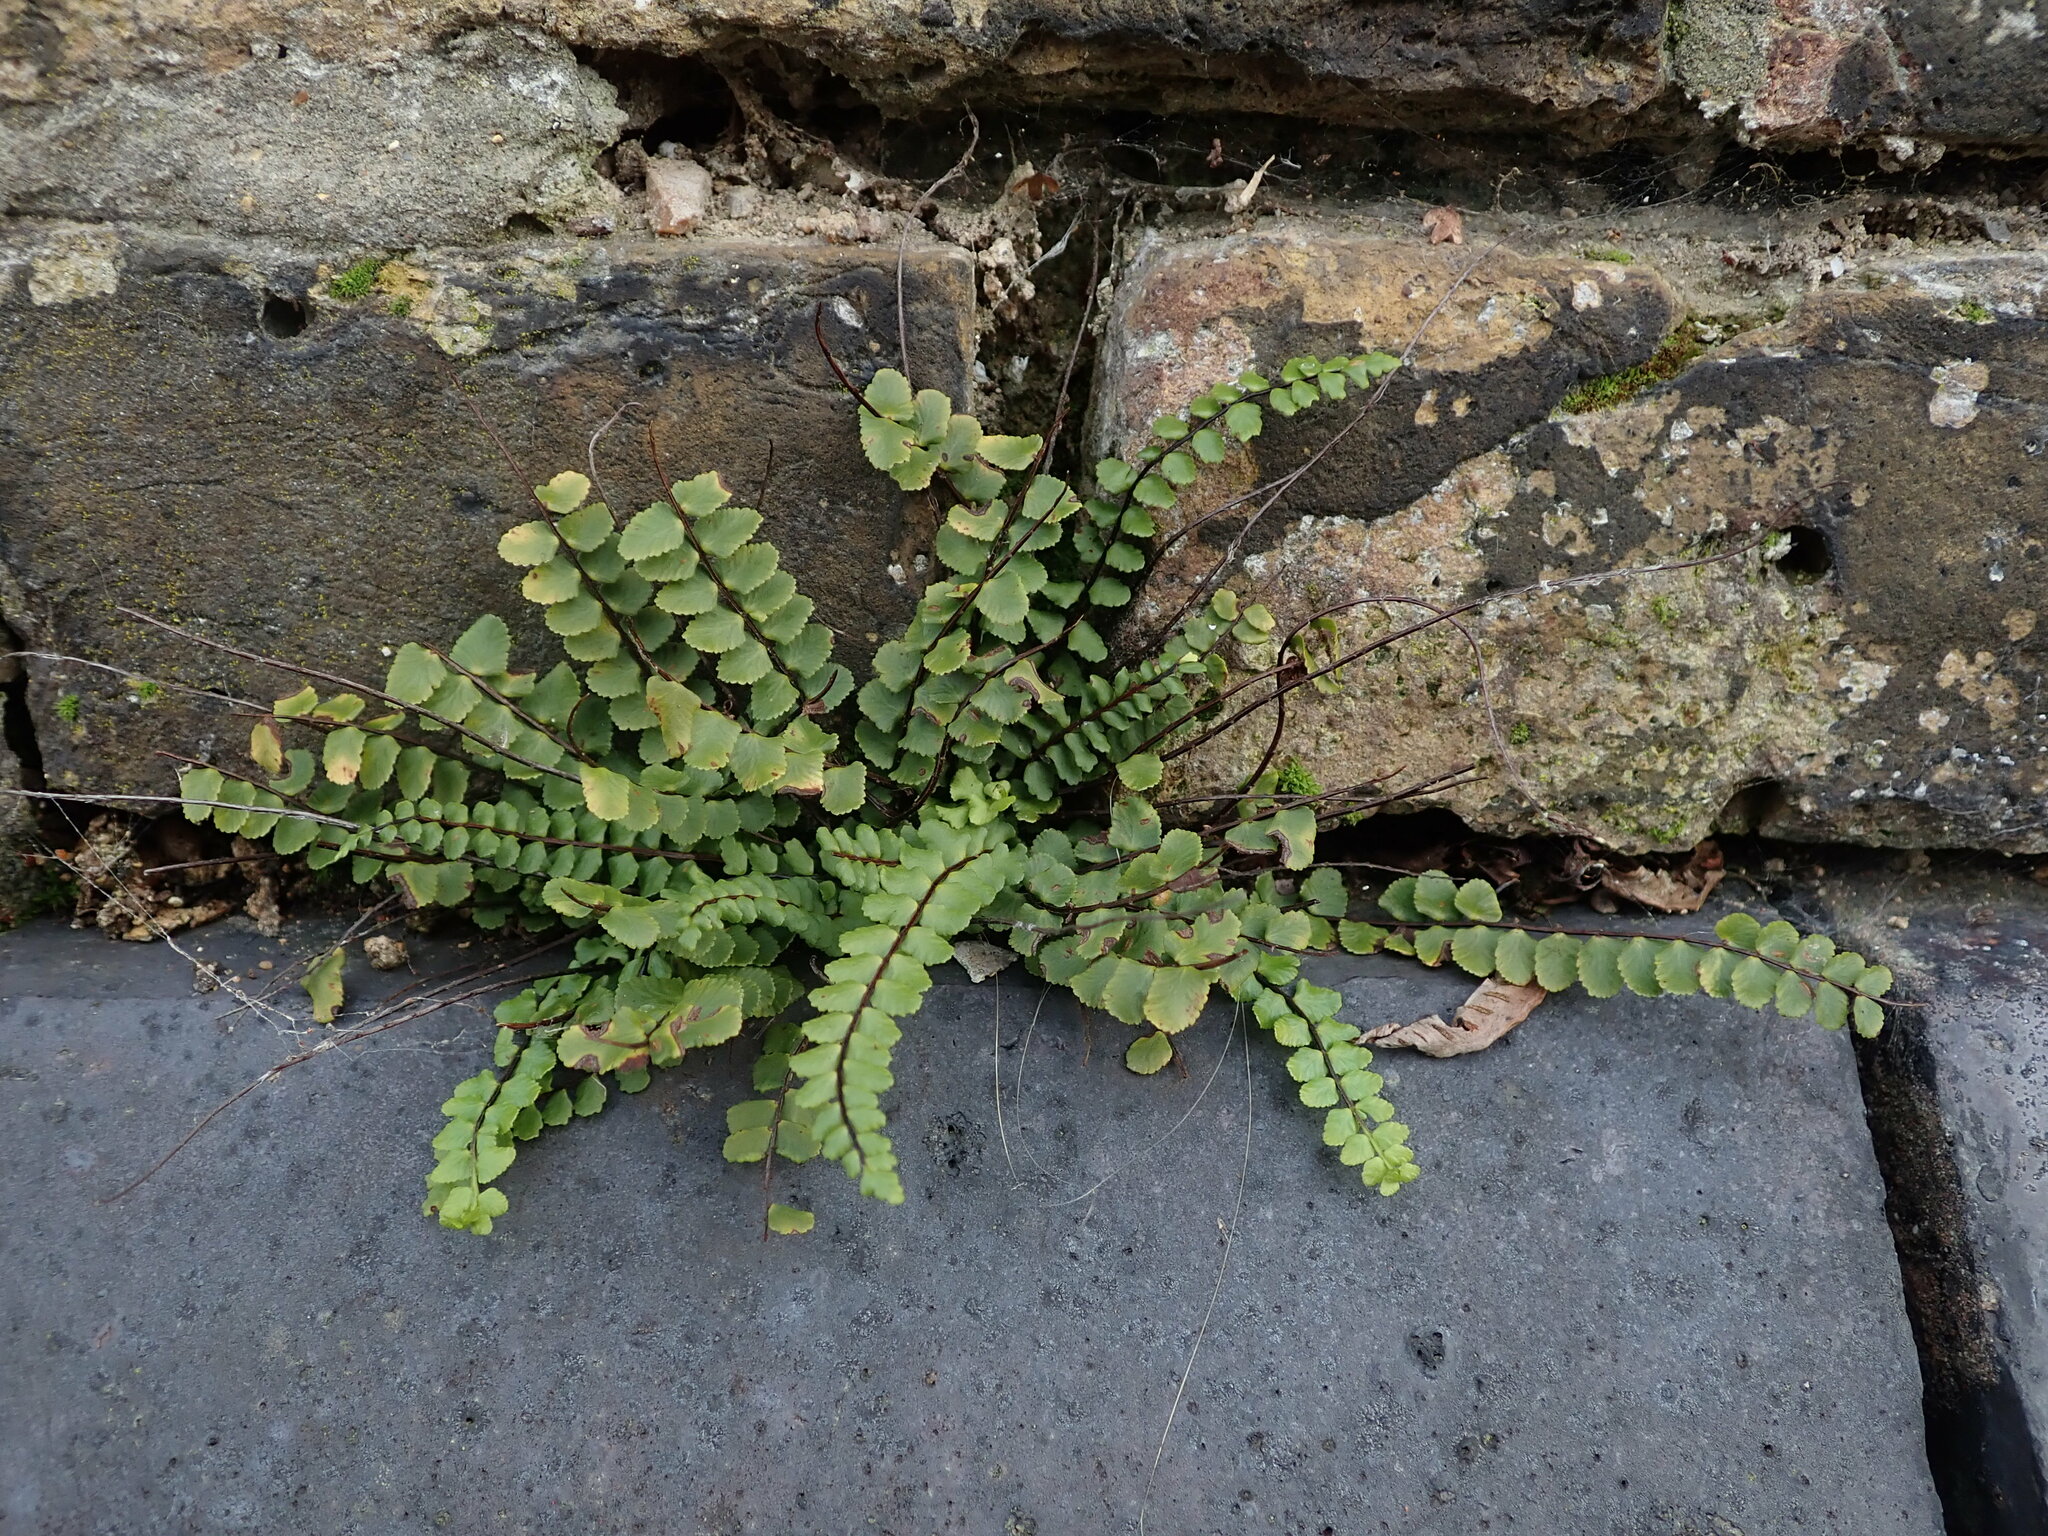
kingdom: Plantae
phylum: Tracheophyta
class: Polypodiopsida
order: Polypodiales
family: Aspleniaceae
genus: Asplenium
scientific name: Asplenium trichomanes
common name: Maidenhair spleenwort
